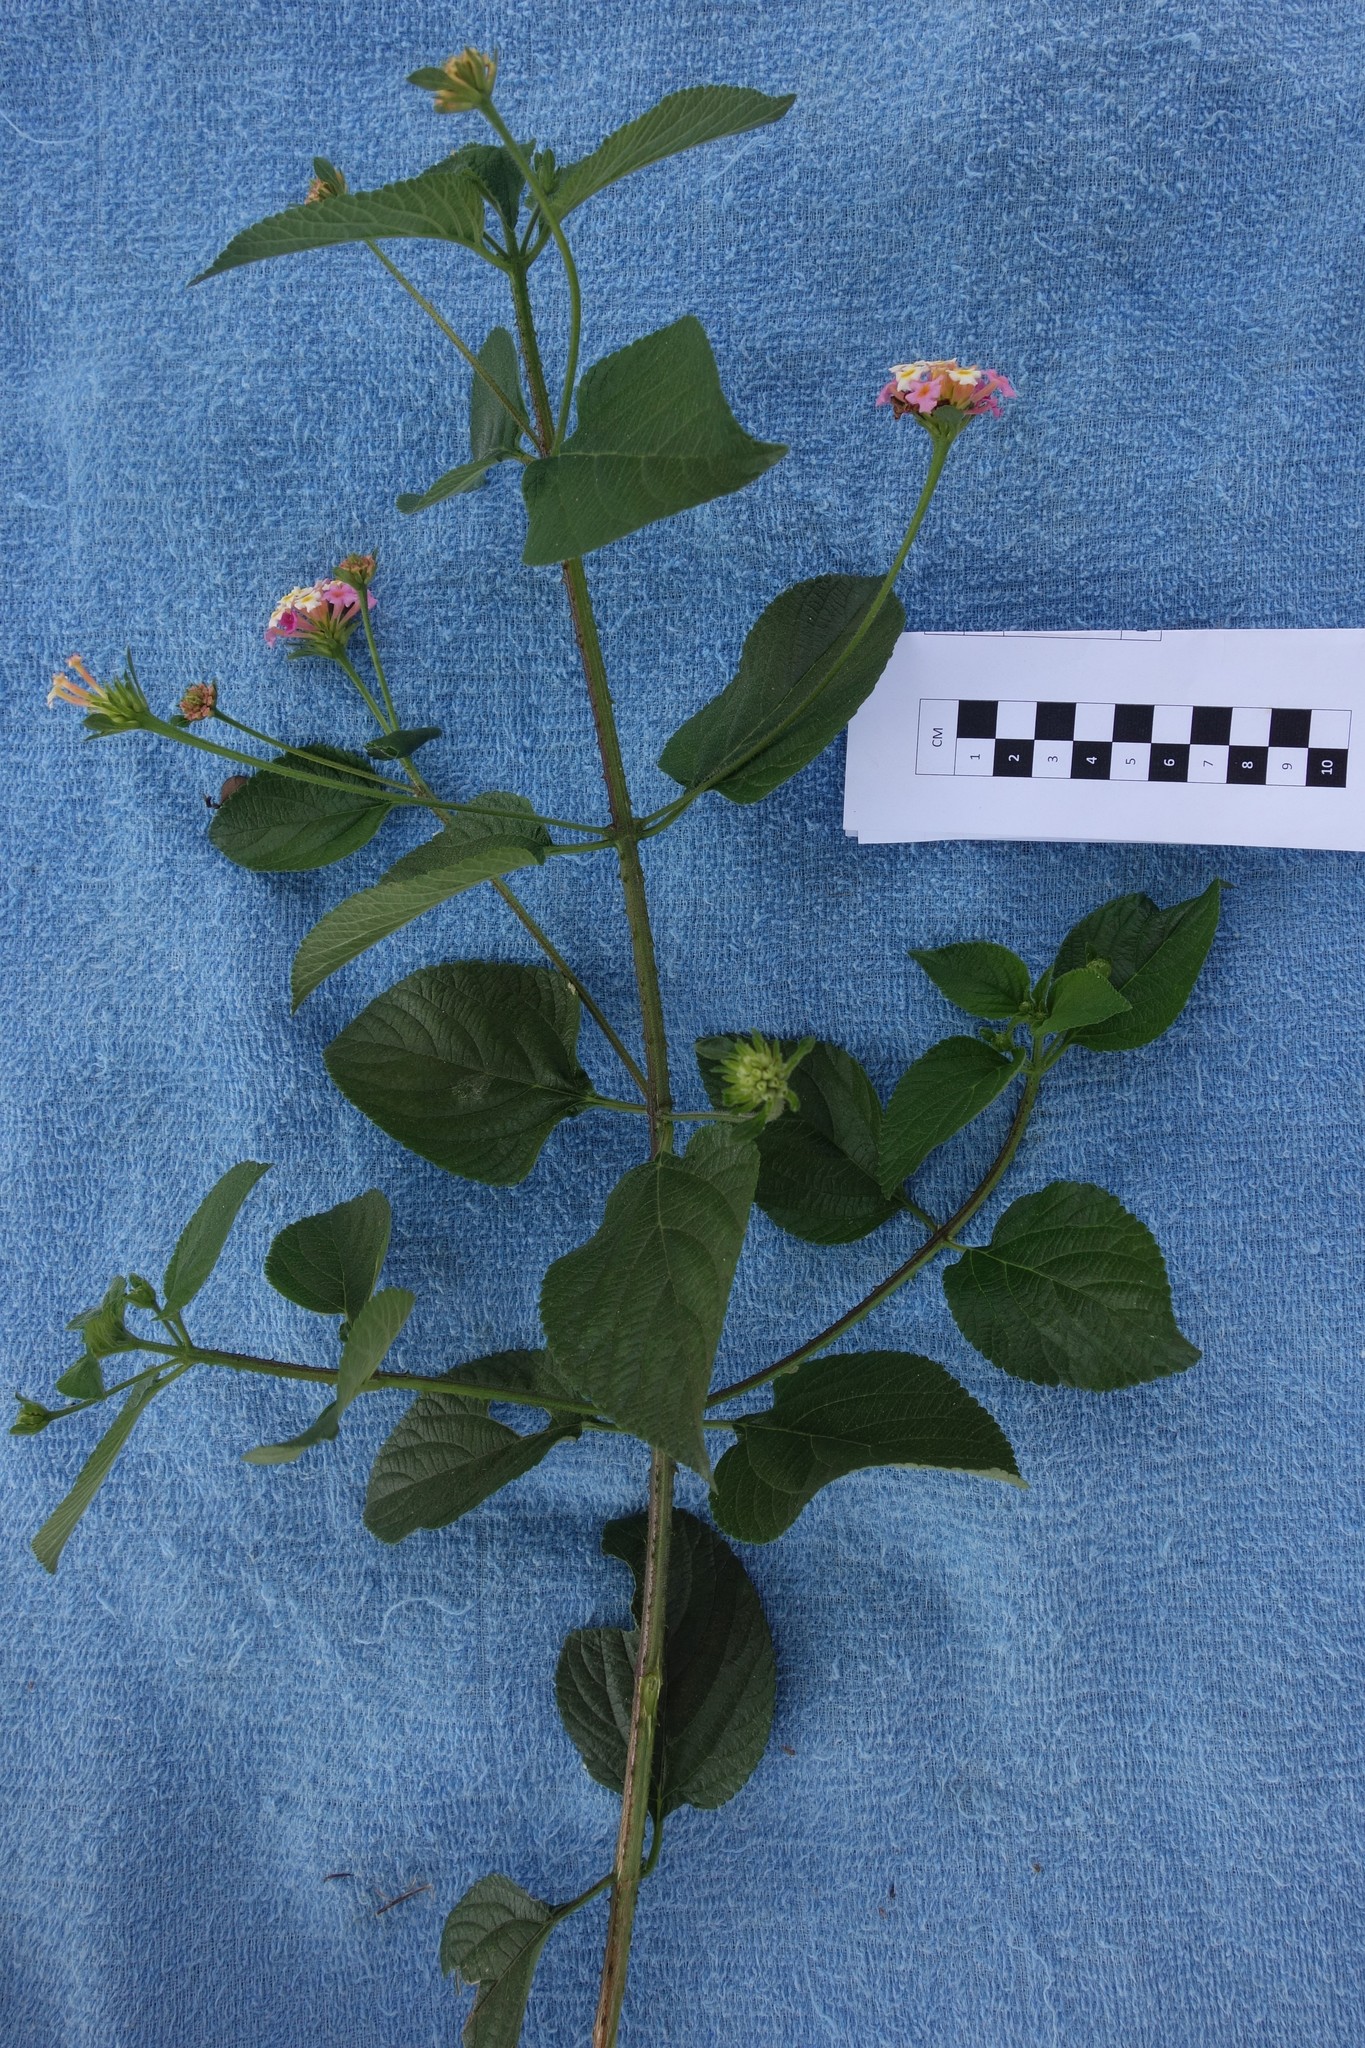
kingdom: Plantae
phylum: Tracheophyta
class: Magnoliopsida
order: Lamiales
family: Verbenaceae
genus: Lantana
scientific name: Lantana camara
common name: Lantana
